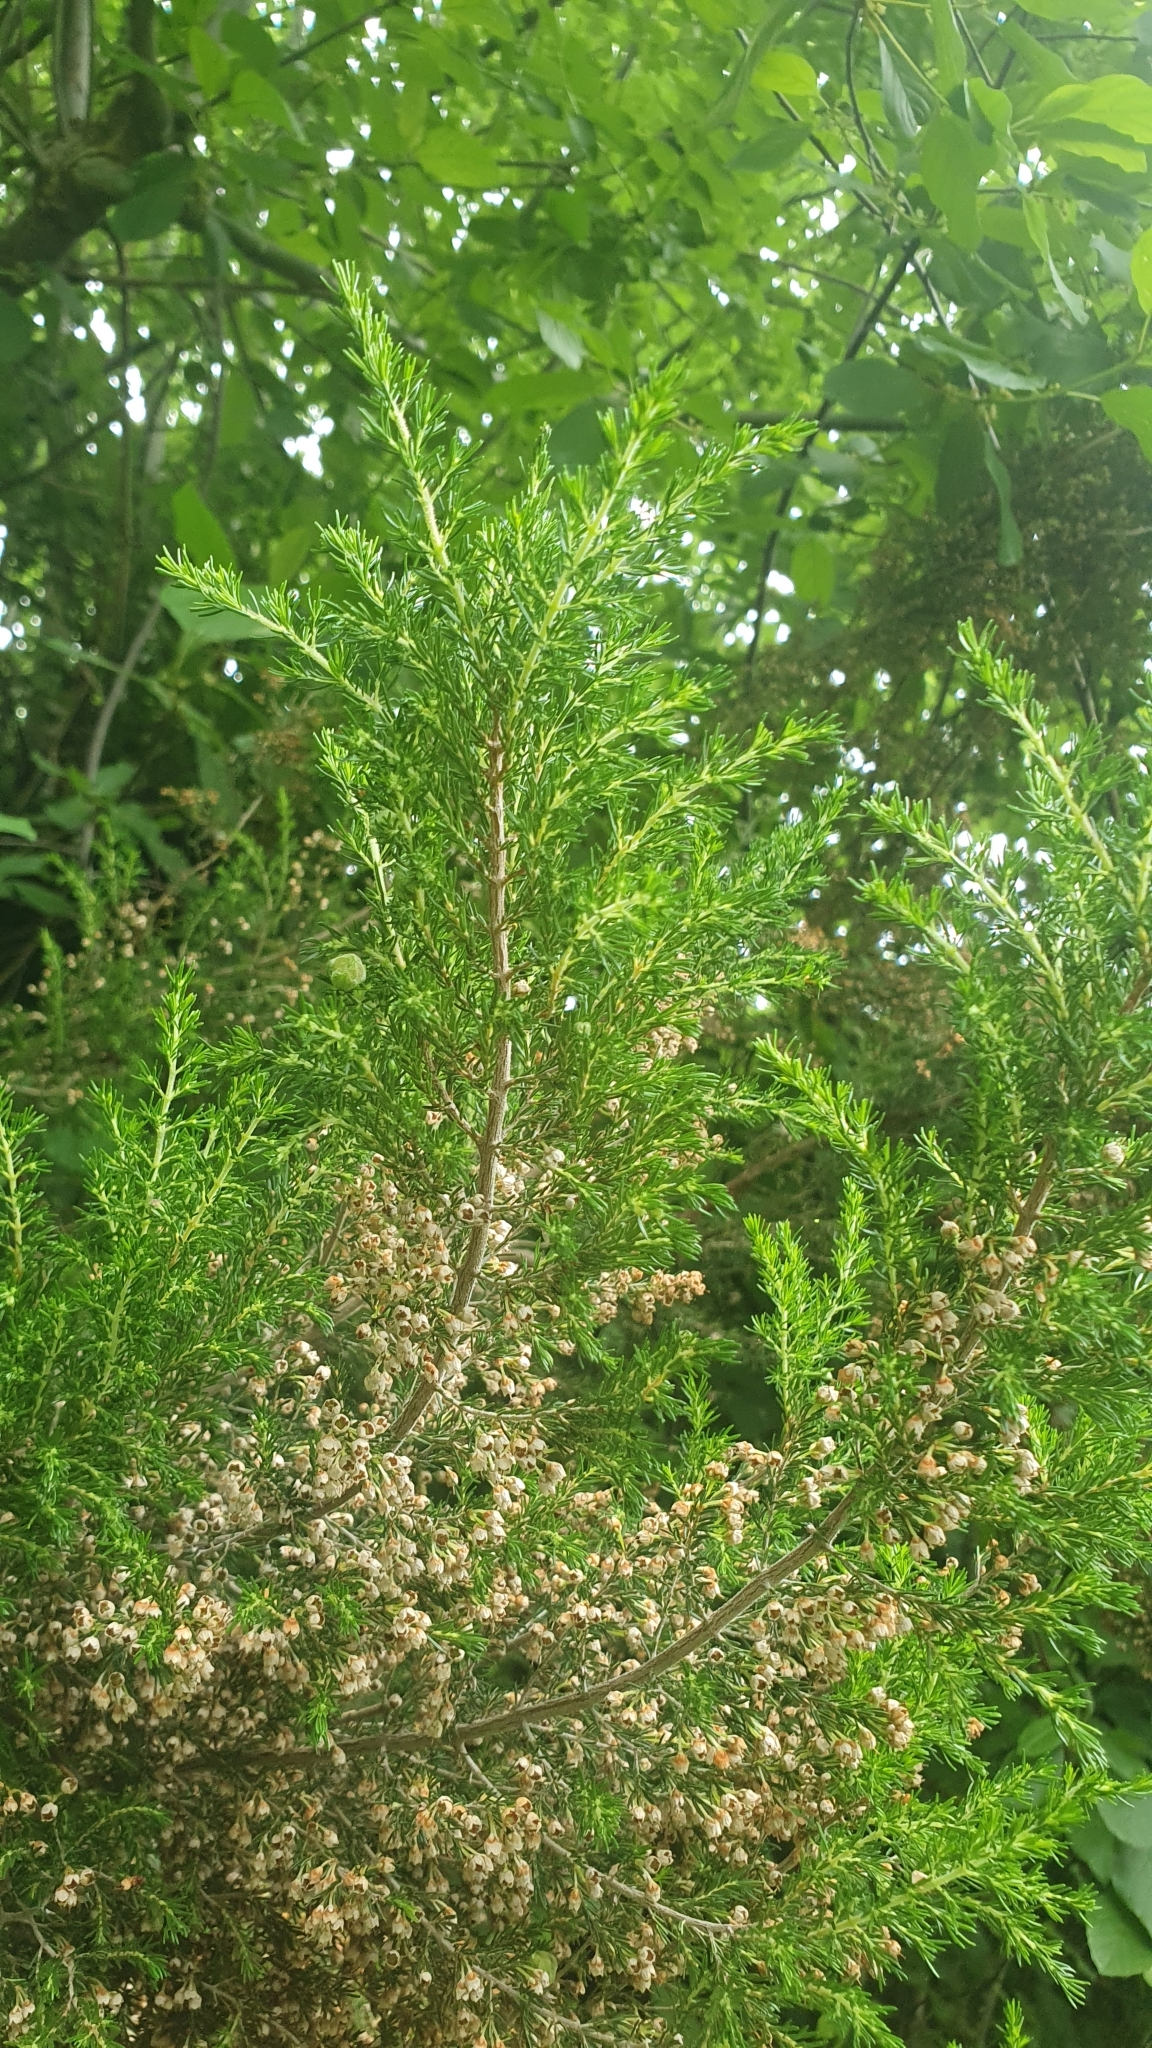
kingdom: Plantae
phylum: Tracheophyta
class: Magnoliopsida
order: Ericales
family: Ericaceae
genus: Erica
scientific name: Erica arborea
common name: Tree heath
